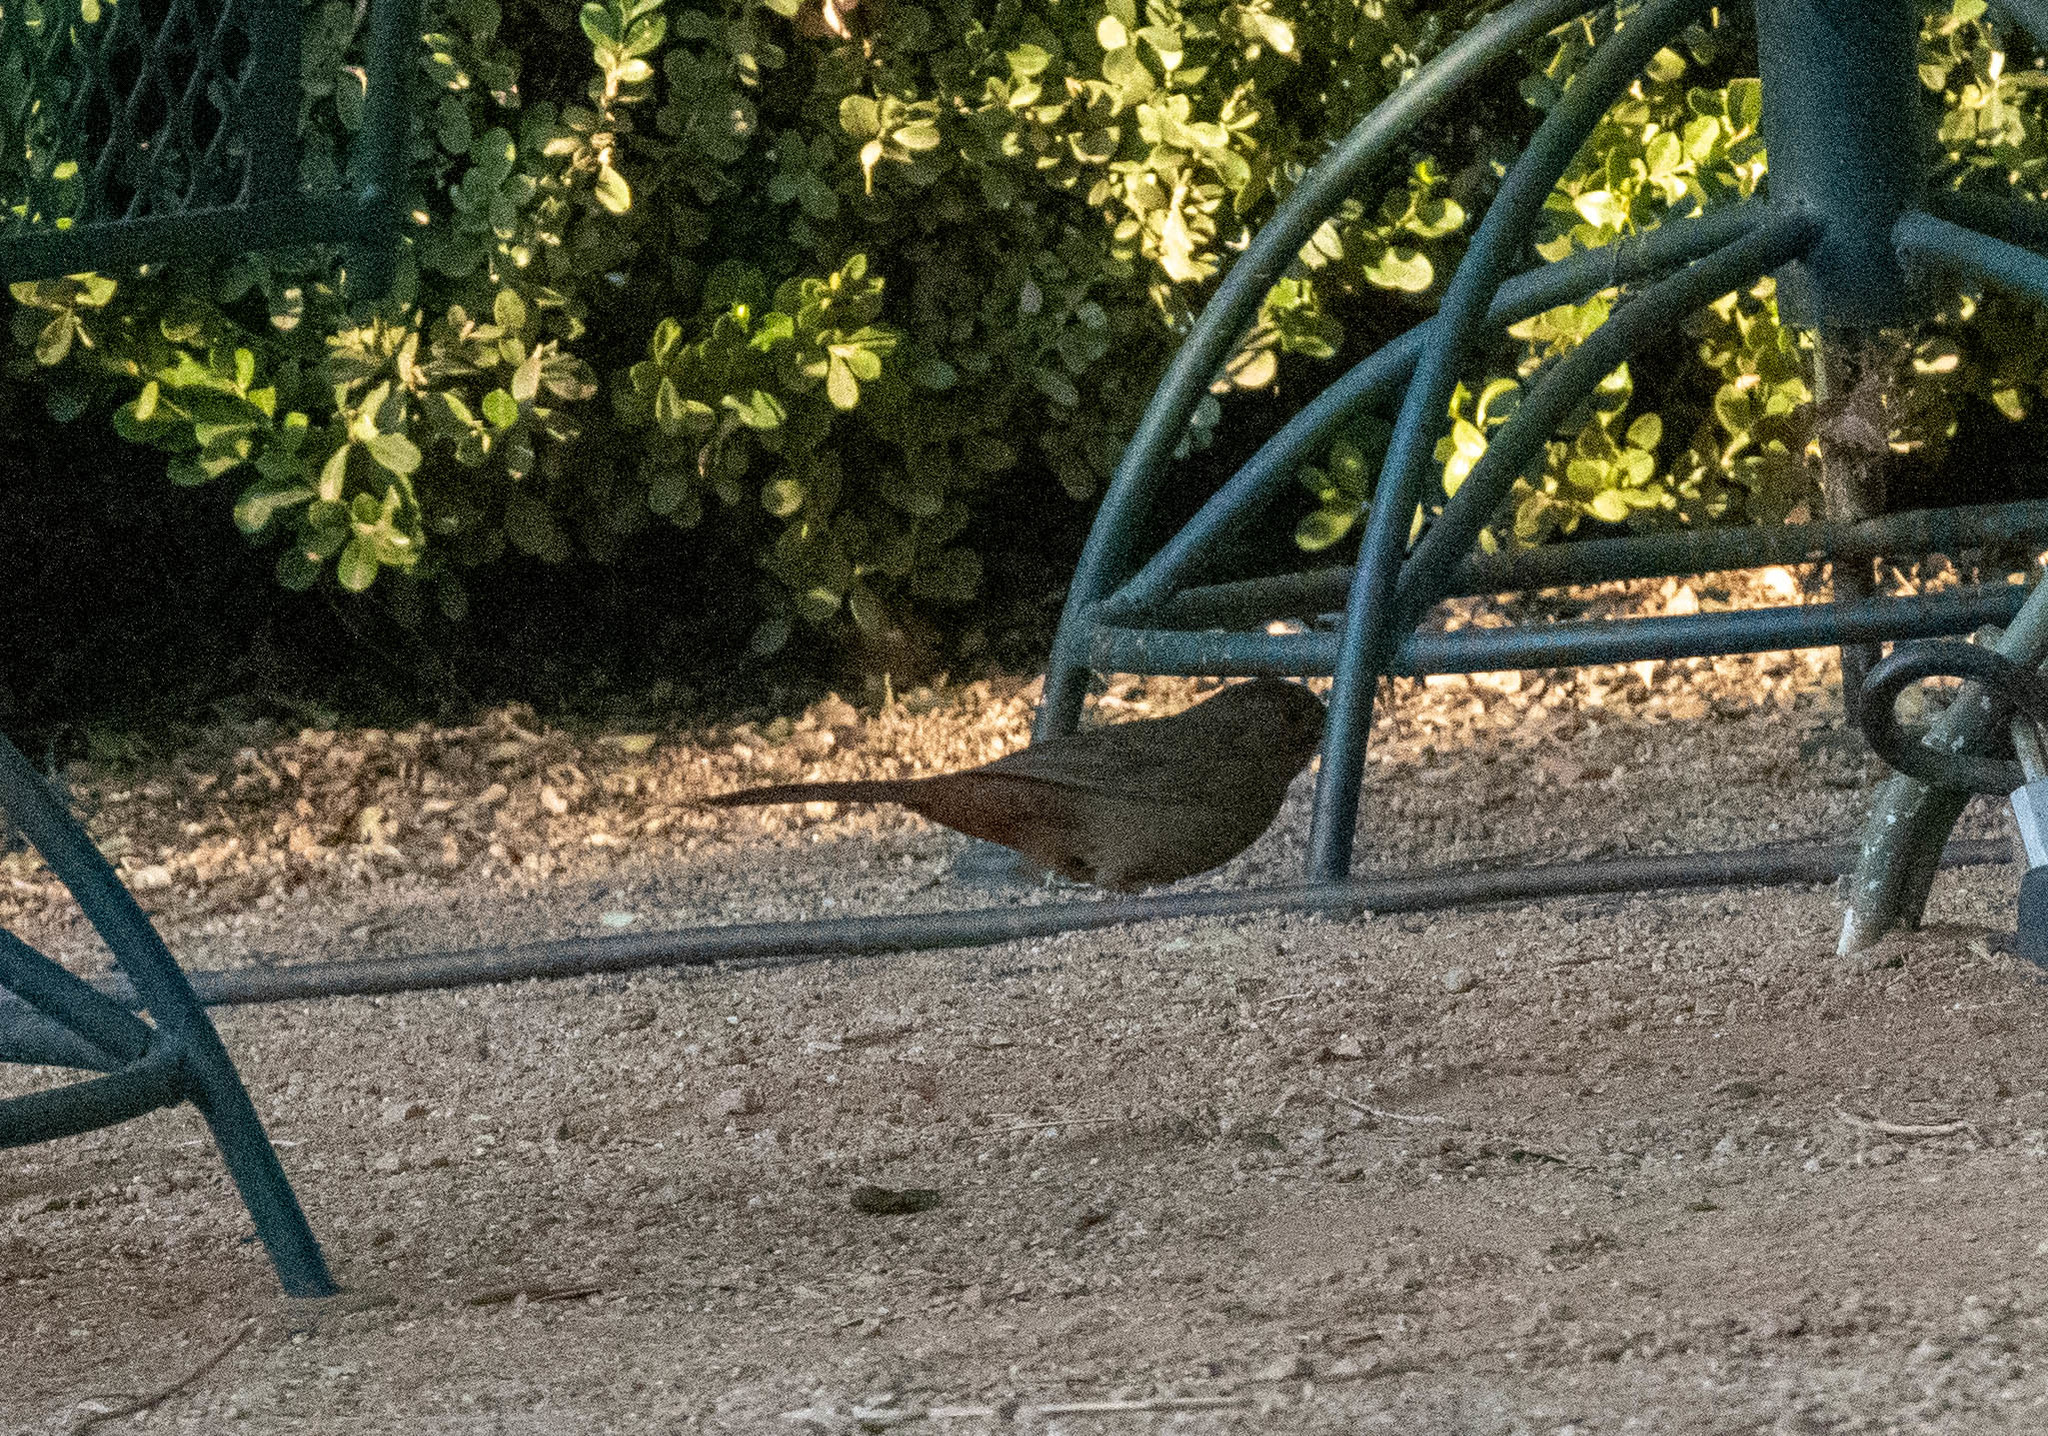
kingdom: Animalia
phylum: Chordata
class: Aves
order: Passeriformes
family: Passerellidae
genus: Melozone
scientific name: Melozone crissalis
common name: California towhee
